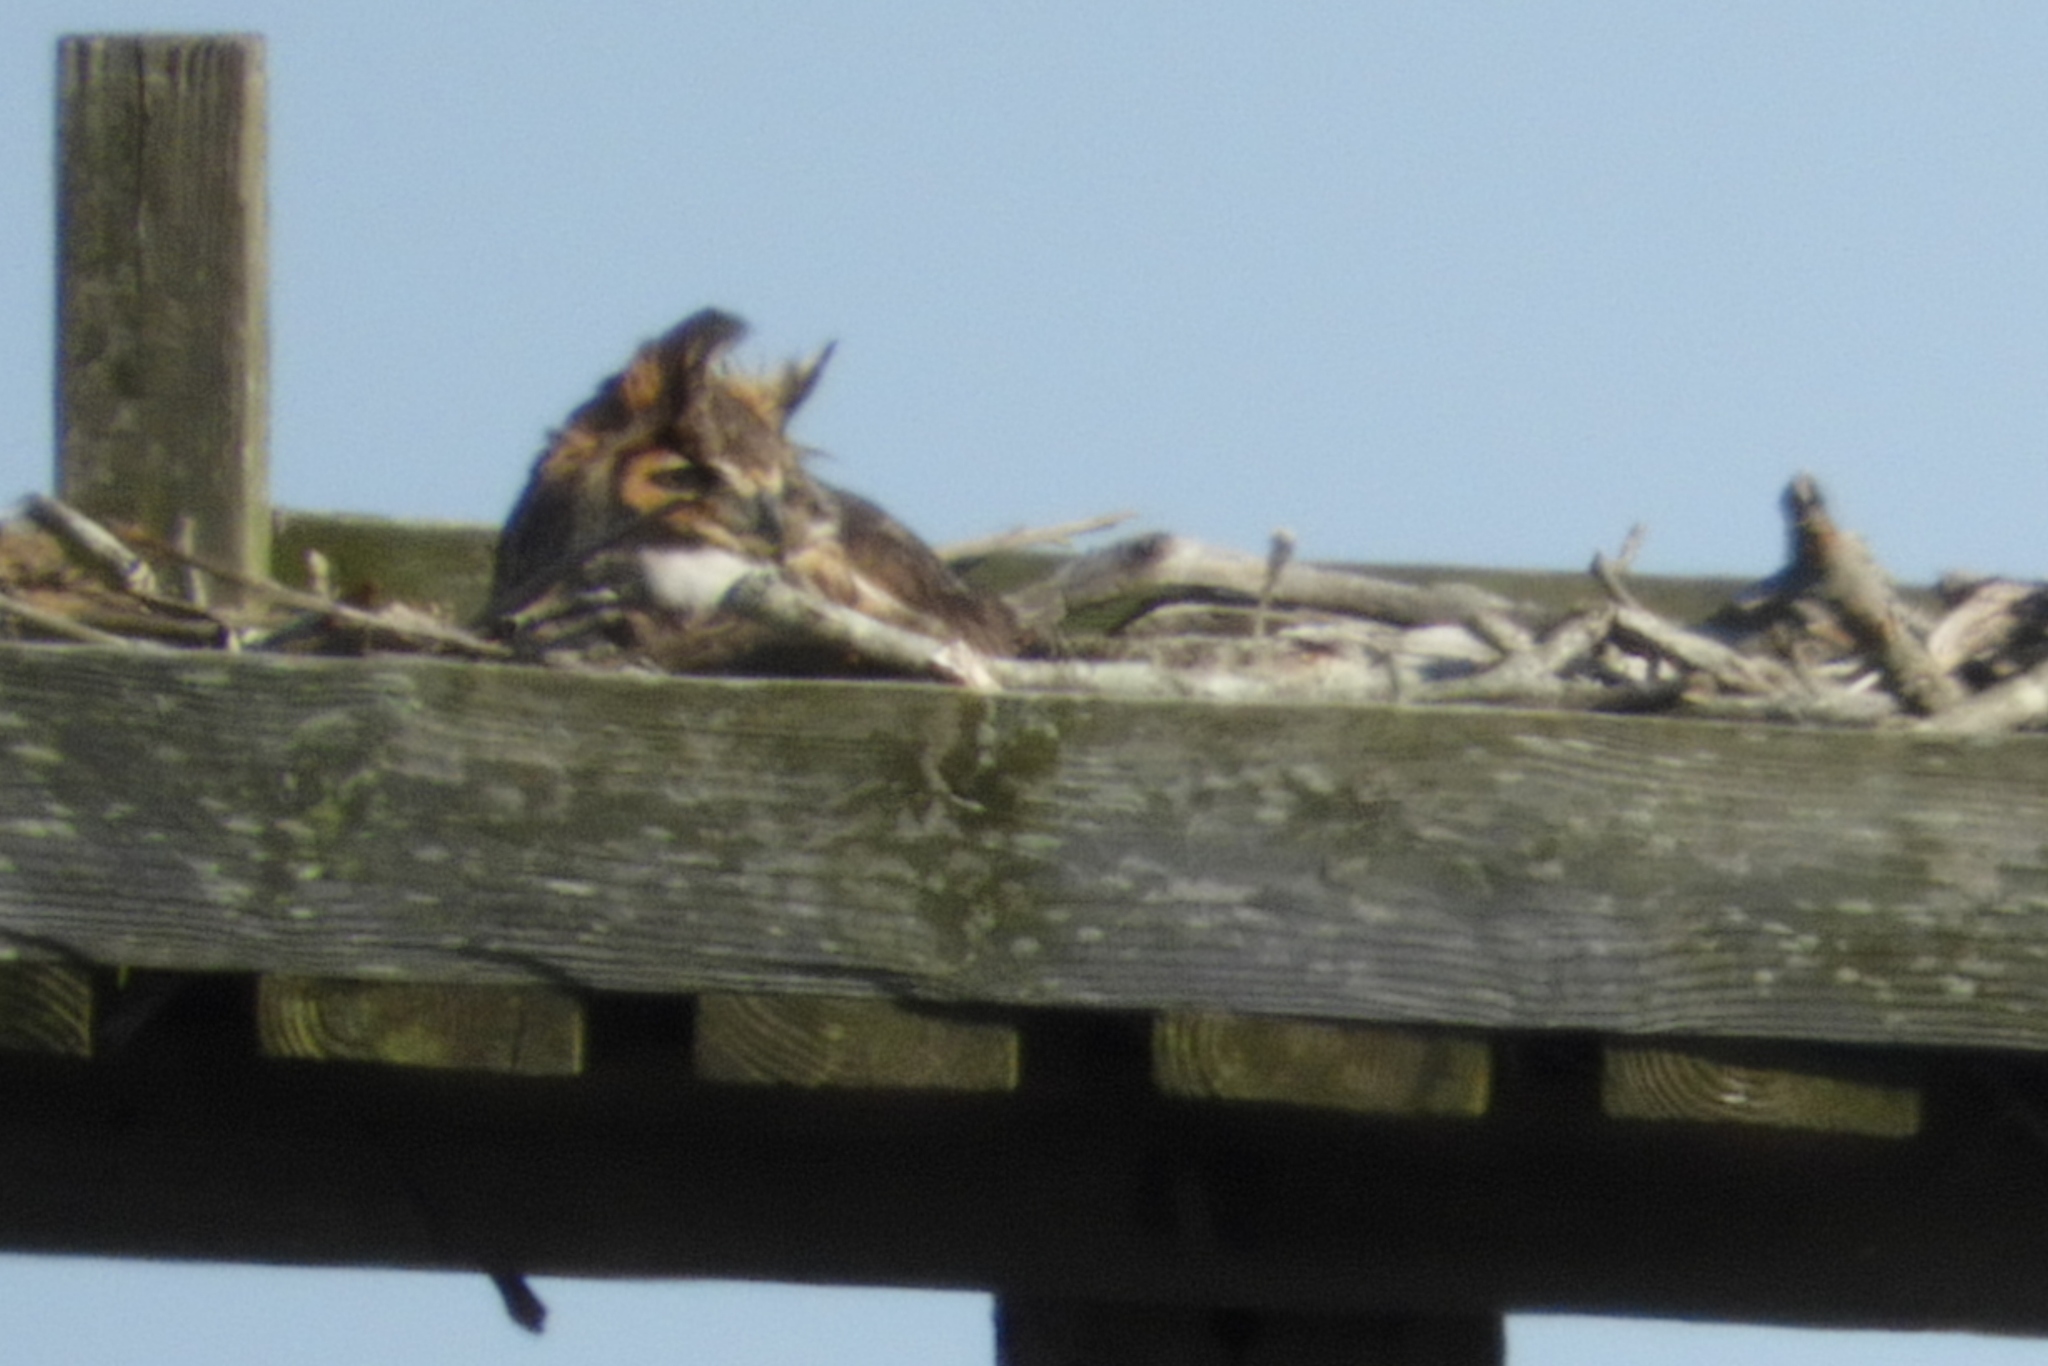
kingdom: Animalia
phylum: Chordata
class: Aves
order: Strigiformes
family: Strigidae
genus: Bubo
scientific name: Bubo virginianus
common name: Great horned owl
